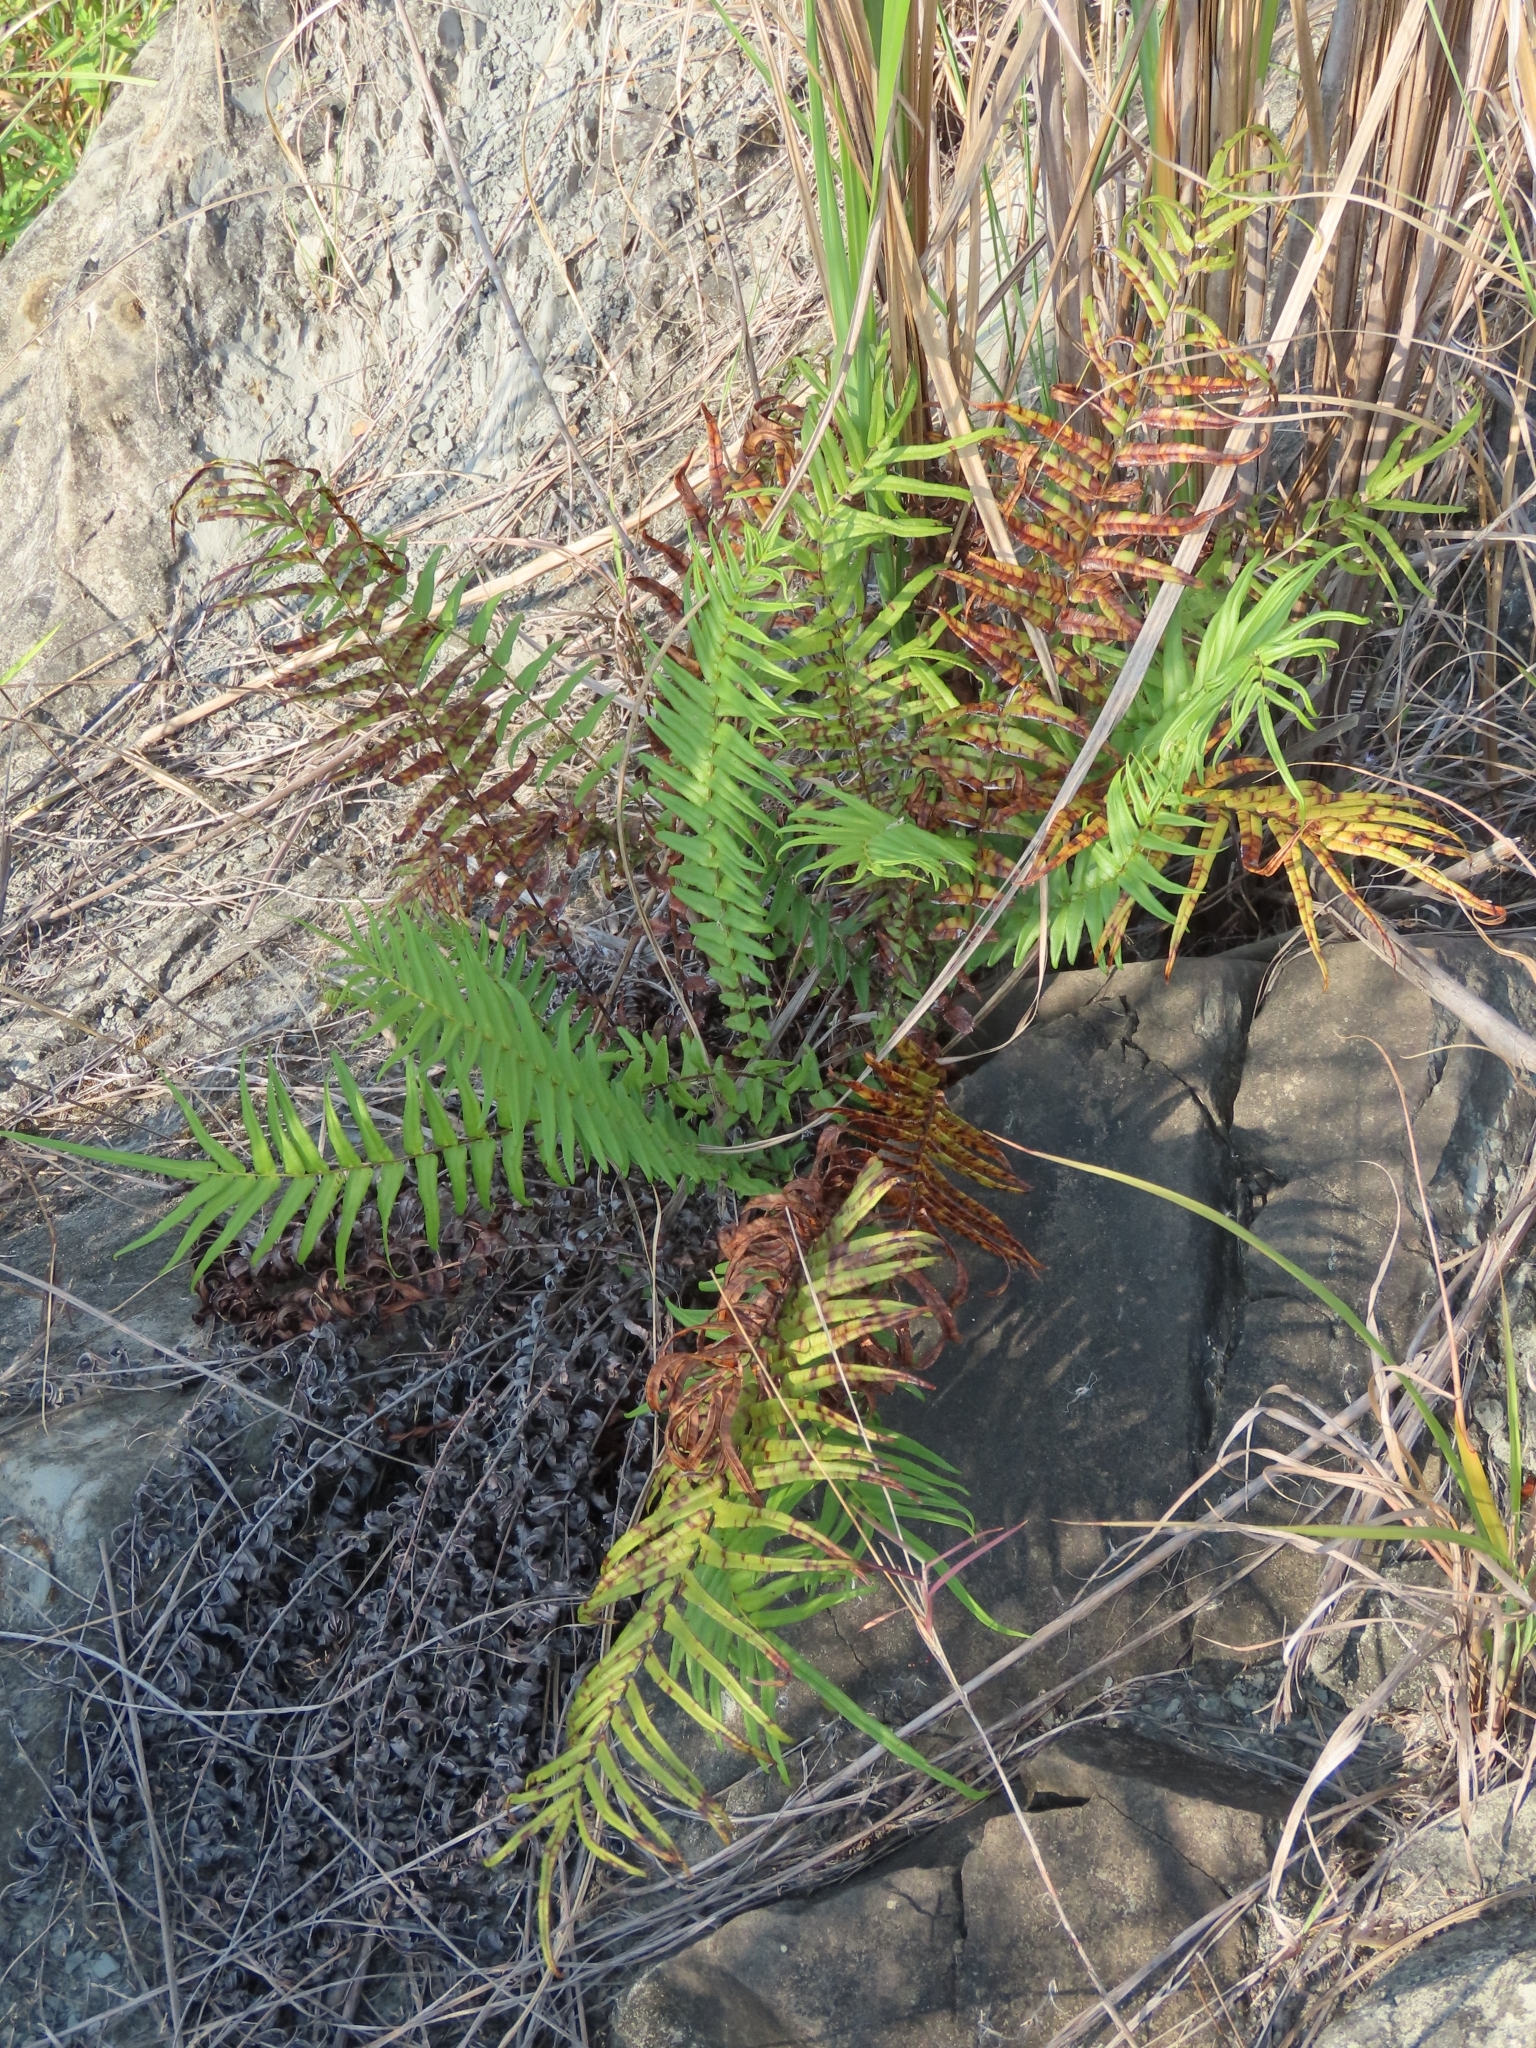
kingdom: Plantae
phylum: Tracheophyta
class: Polypodiopsida
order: Polypodiales
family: Pteridaceae
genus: Pteris
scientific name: Pteris vittata
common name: Ladder brake
